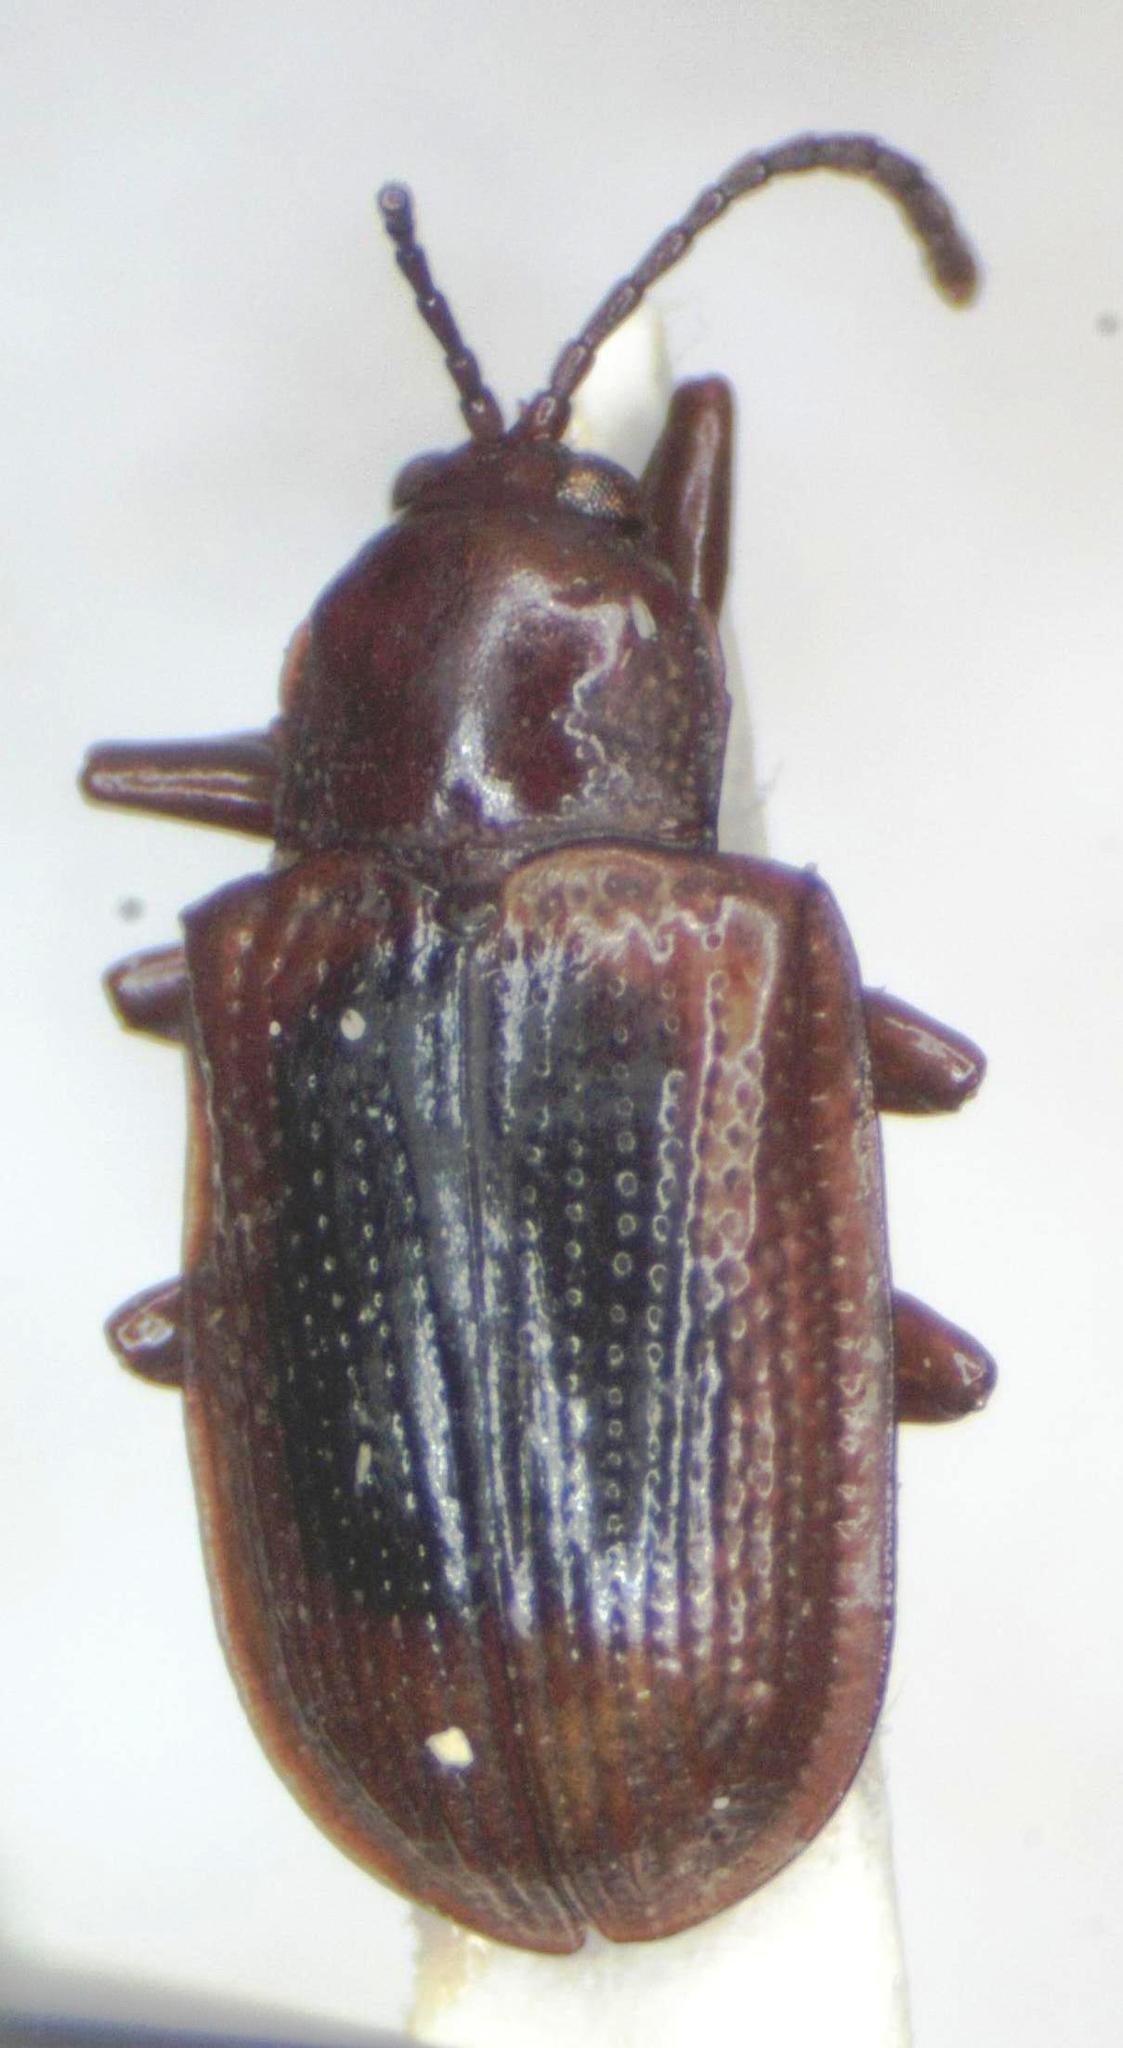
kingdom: Animalia
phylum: Arthropoda
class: Insecta
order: Coleoptera
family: Chrysomelidae
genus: Prosopodonta
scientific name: Prosopodonta dorsata
